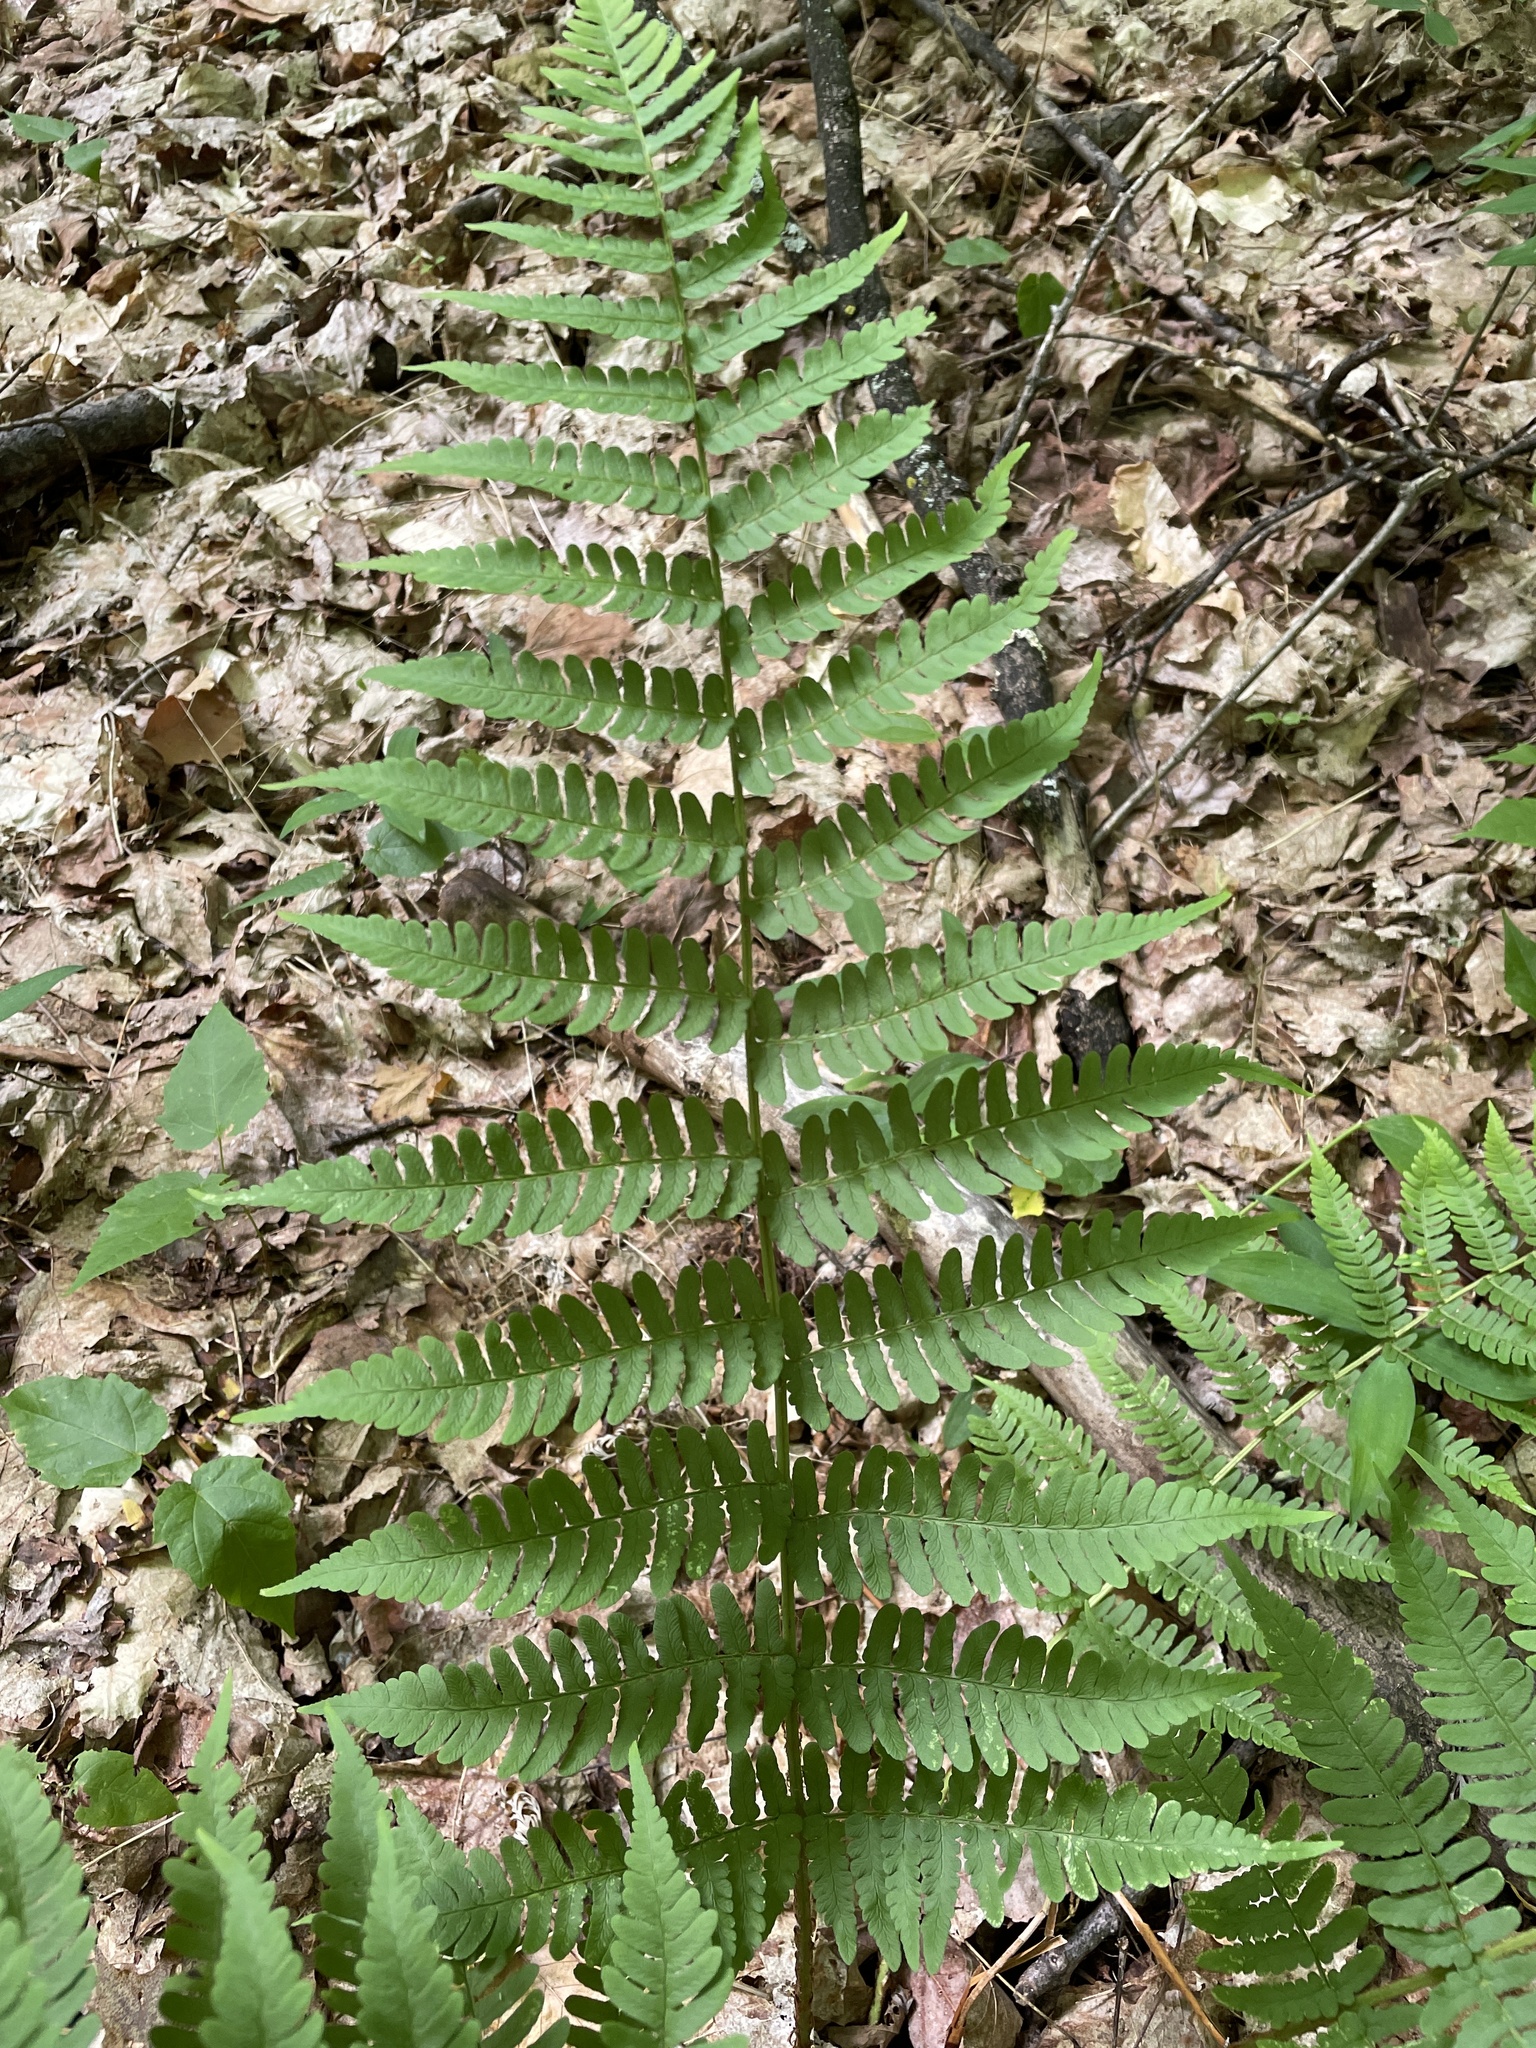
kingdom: Plantae
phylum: Tracheophyta
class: Polypodiopsida
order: Polypodiales
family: Dryopteridaceae
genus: Dryopteris
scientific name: Dryopteris marginalis
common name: Marginal wood fern
